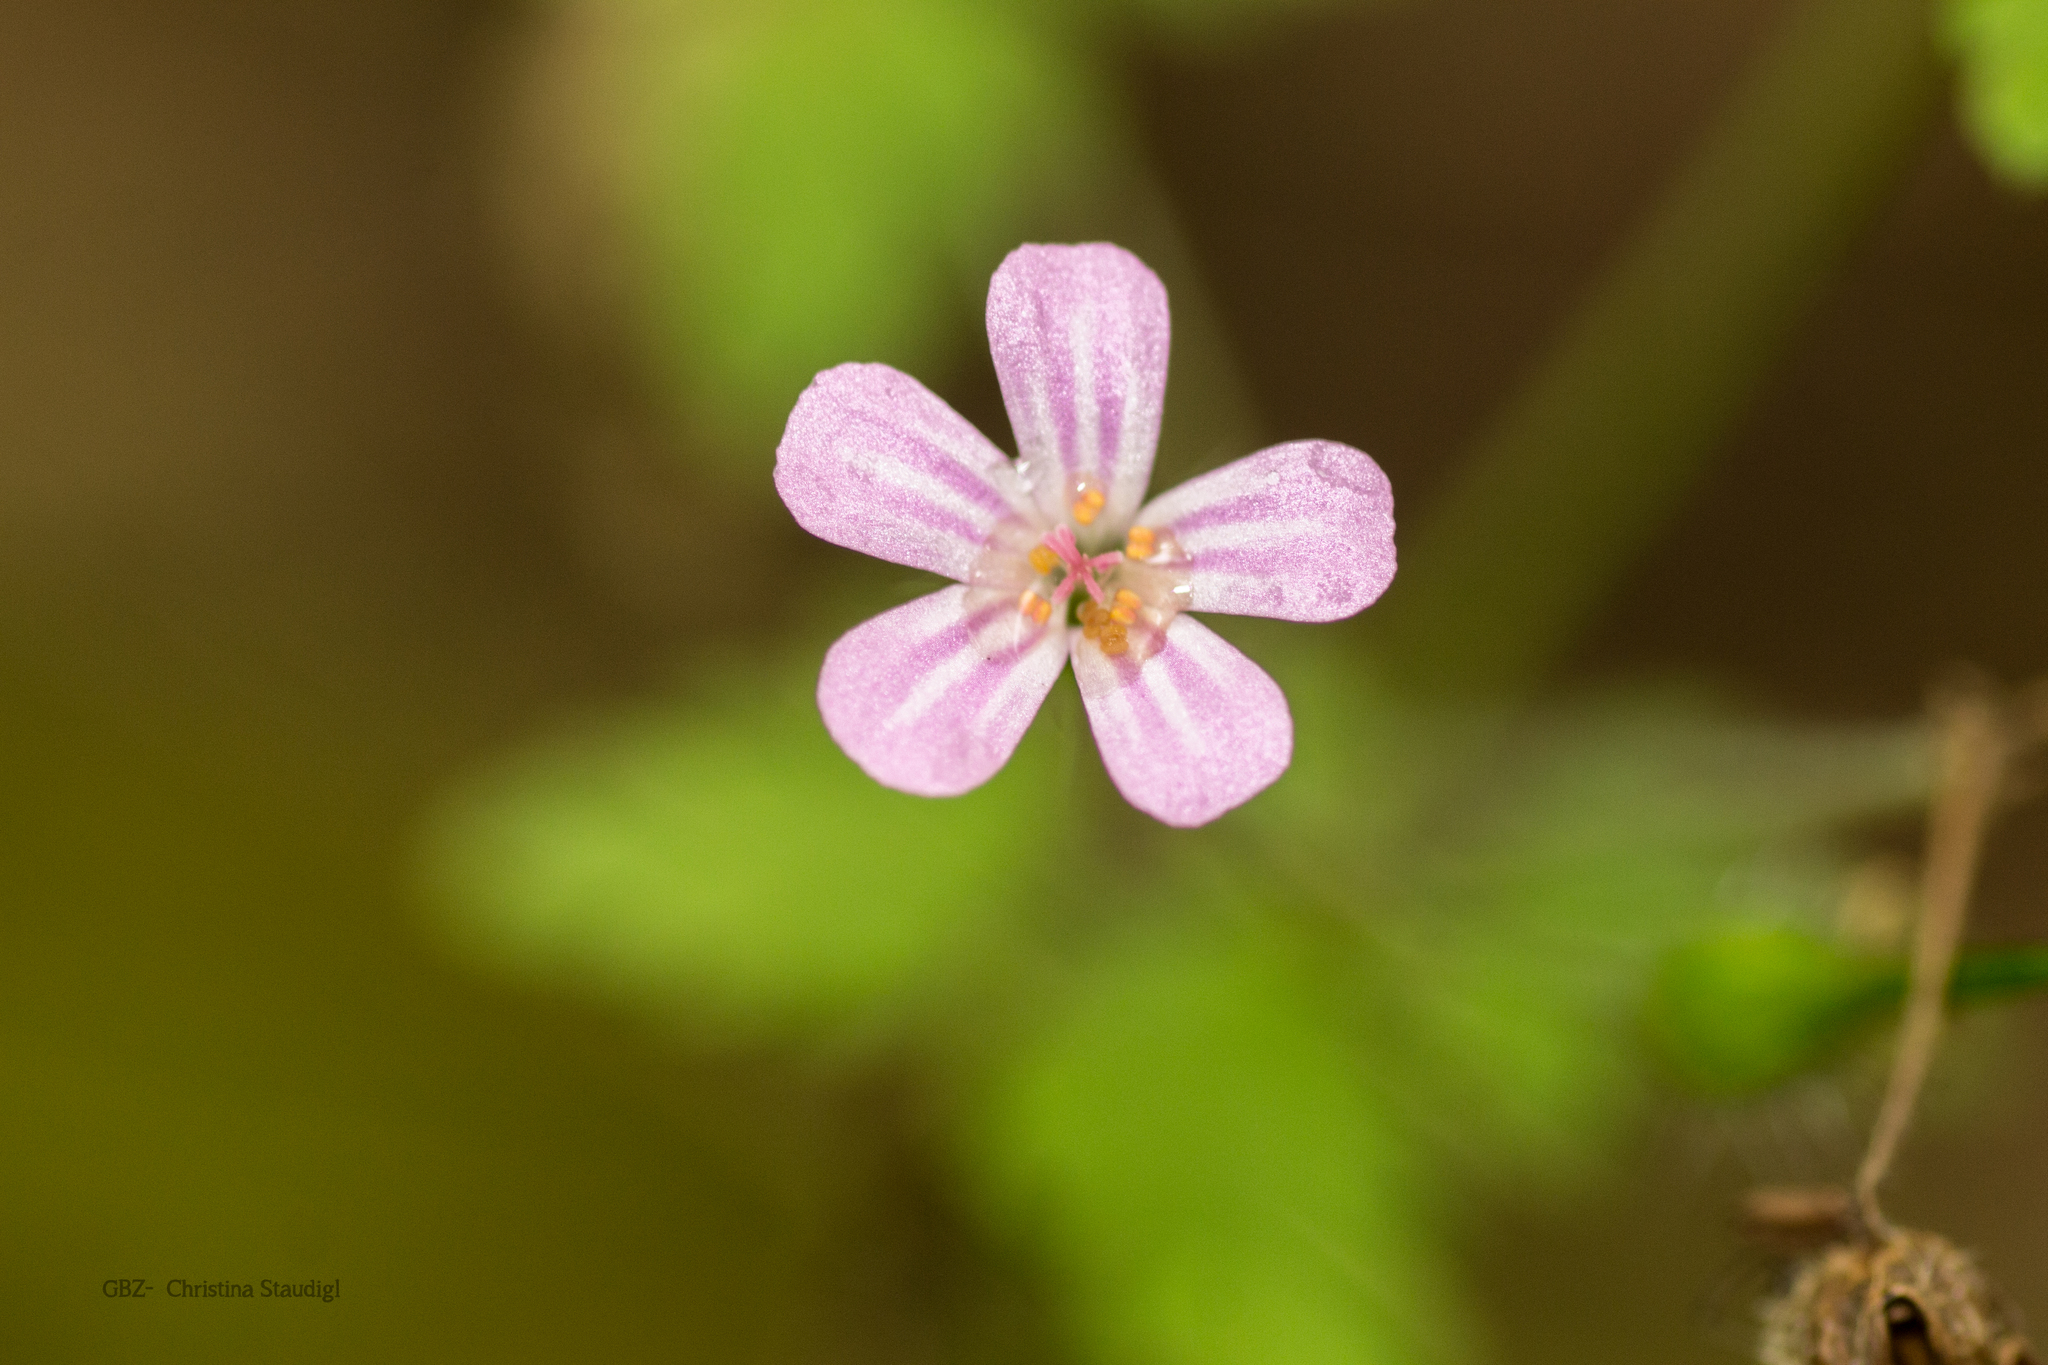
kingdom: Plantae
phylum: Tracheophyta
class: Magnoliopsida
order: Geraniales
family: Geraniaceae
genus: Geranium
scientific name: Geranium robertianum
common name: Herb-robert
